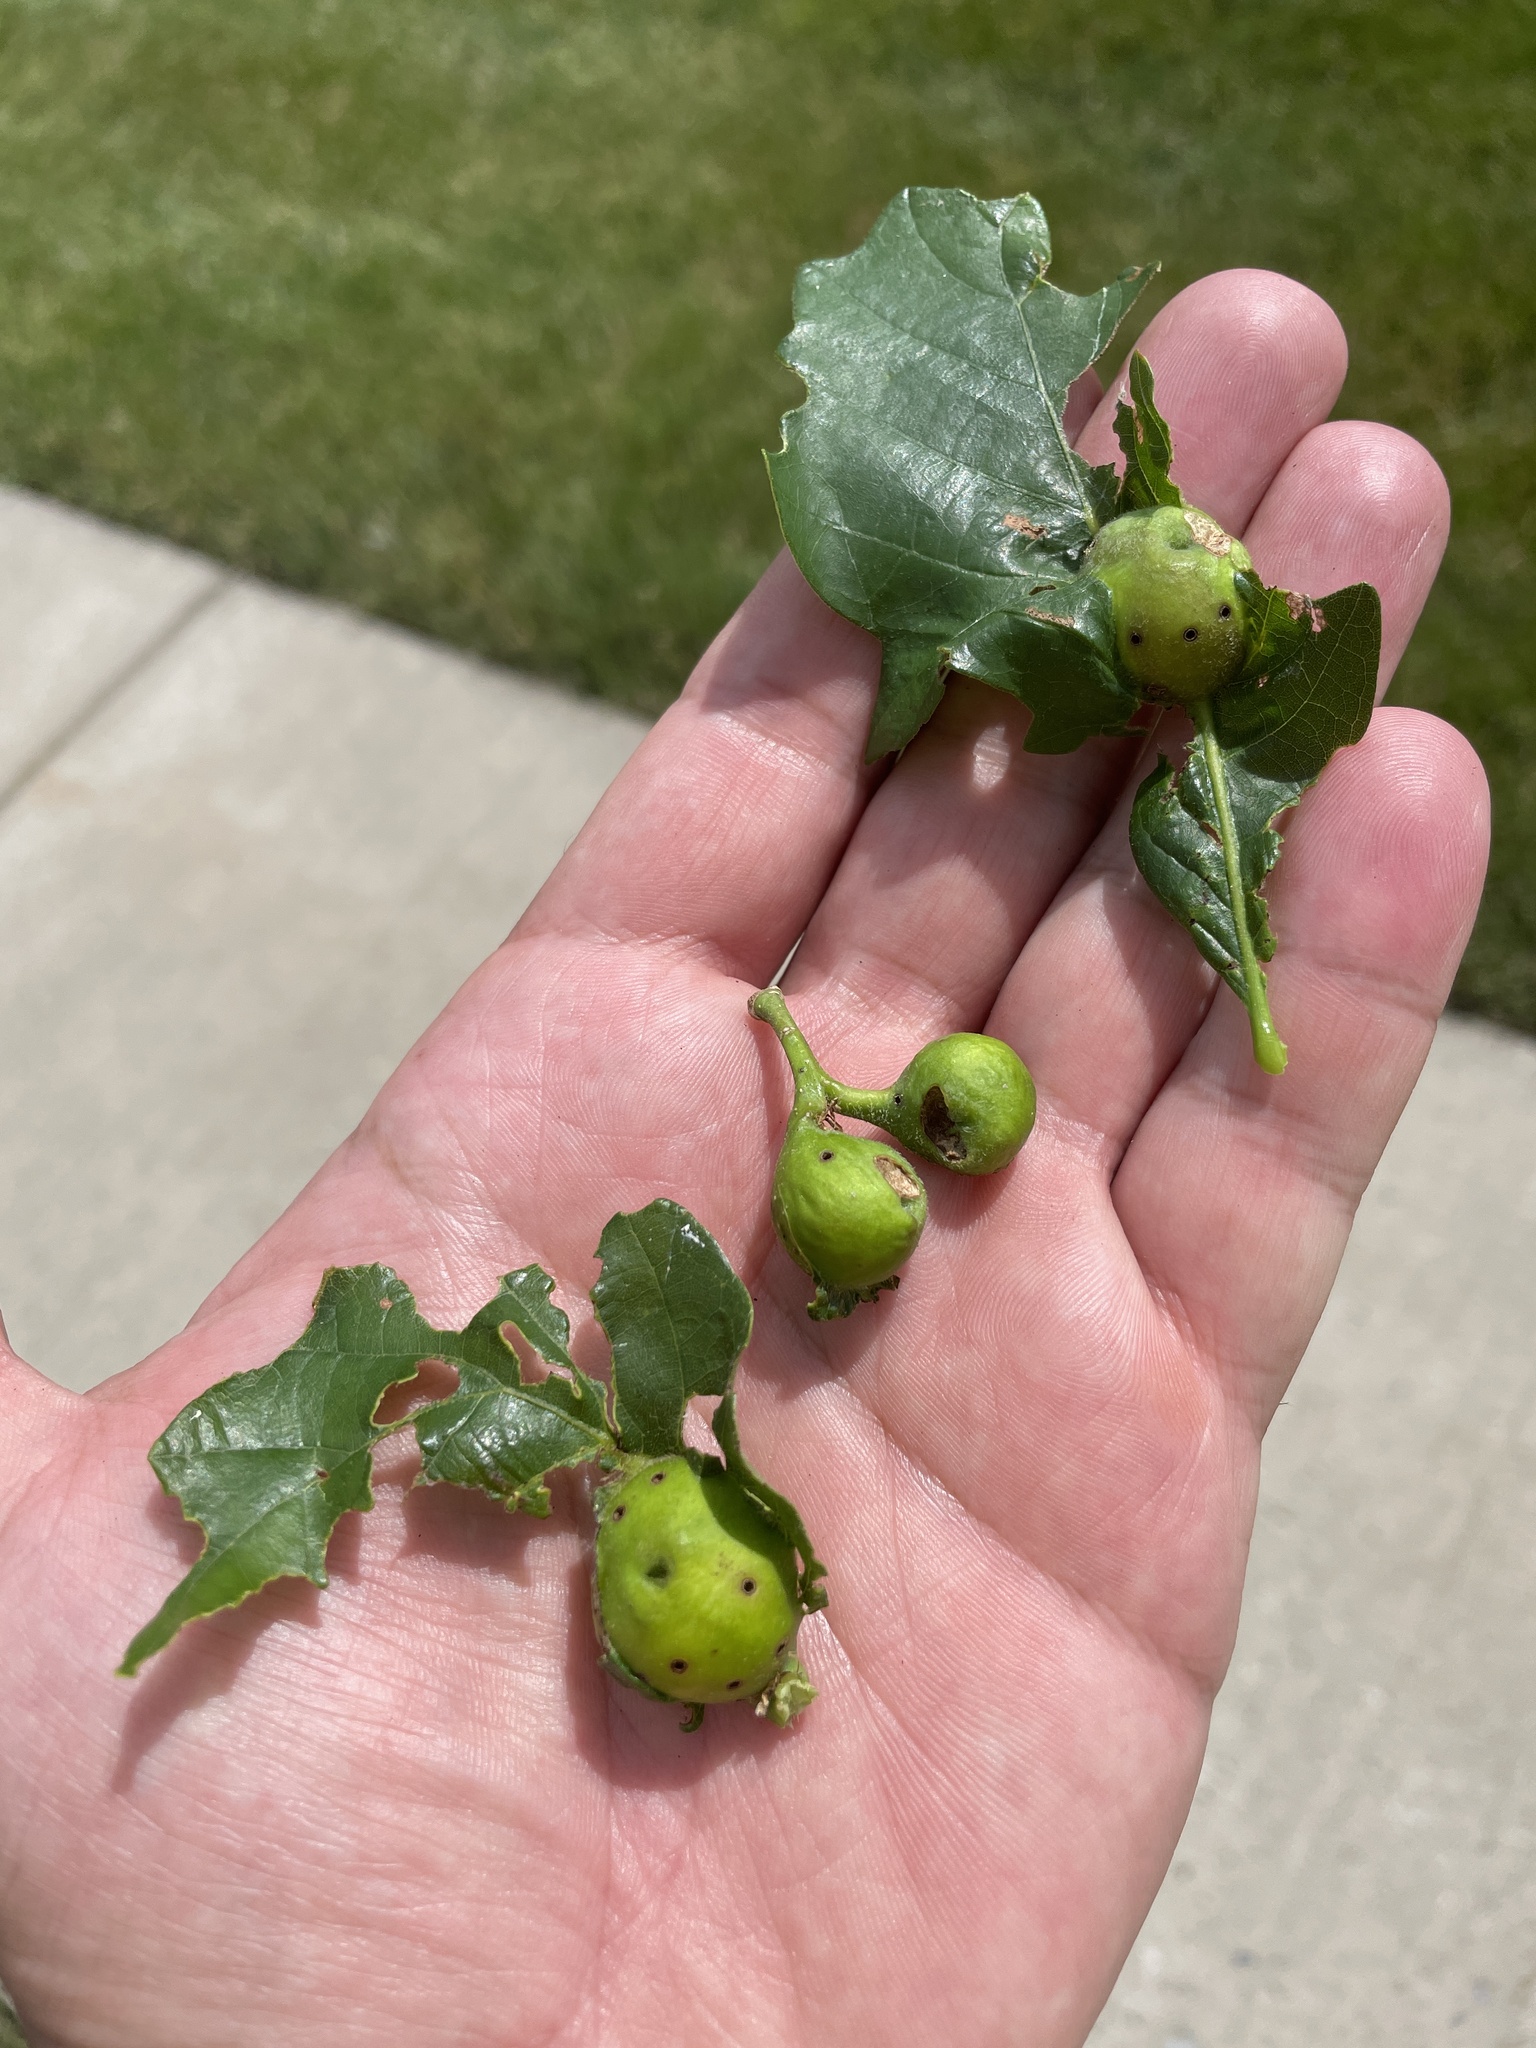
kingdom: Animalia
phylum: Arthropoda
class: Insecta
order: Hymenoptera
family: Cynipidae
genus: Andricus
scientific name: Andricus
